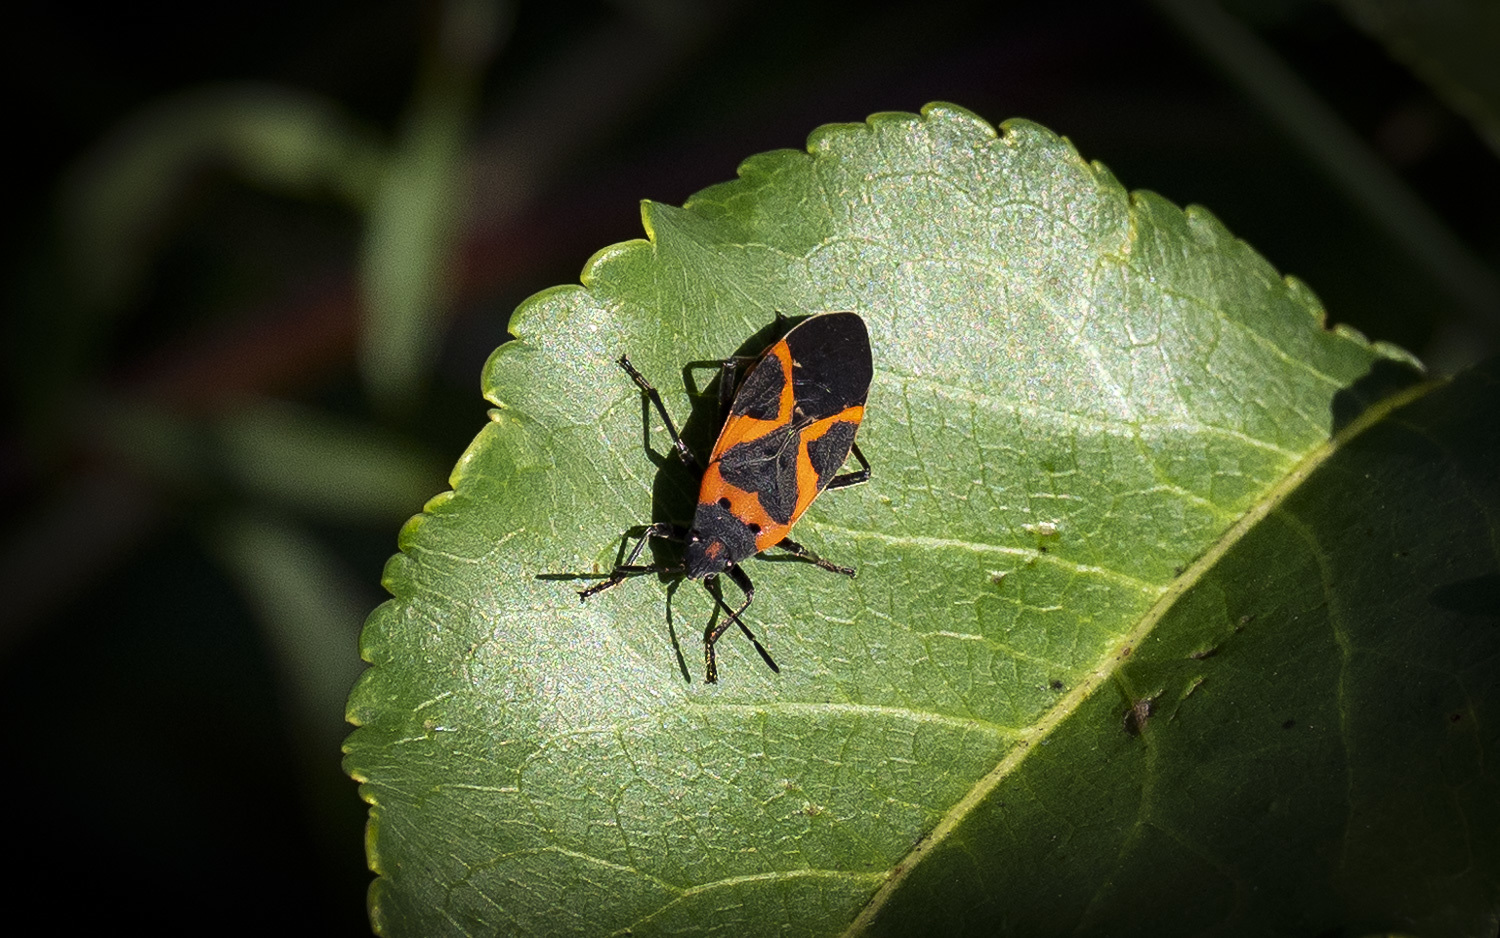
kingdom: Animalia
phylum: Arthropoda
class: Insecta
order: Hemiptera
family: Lygaeidae
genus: Lygaeus
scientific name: Lygaeus kalmii
